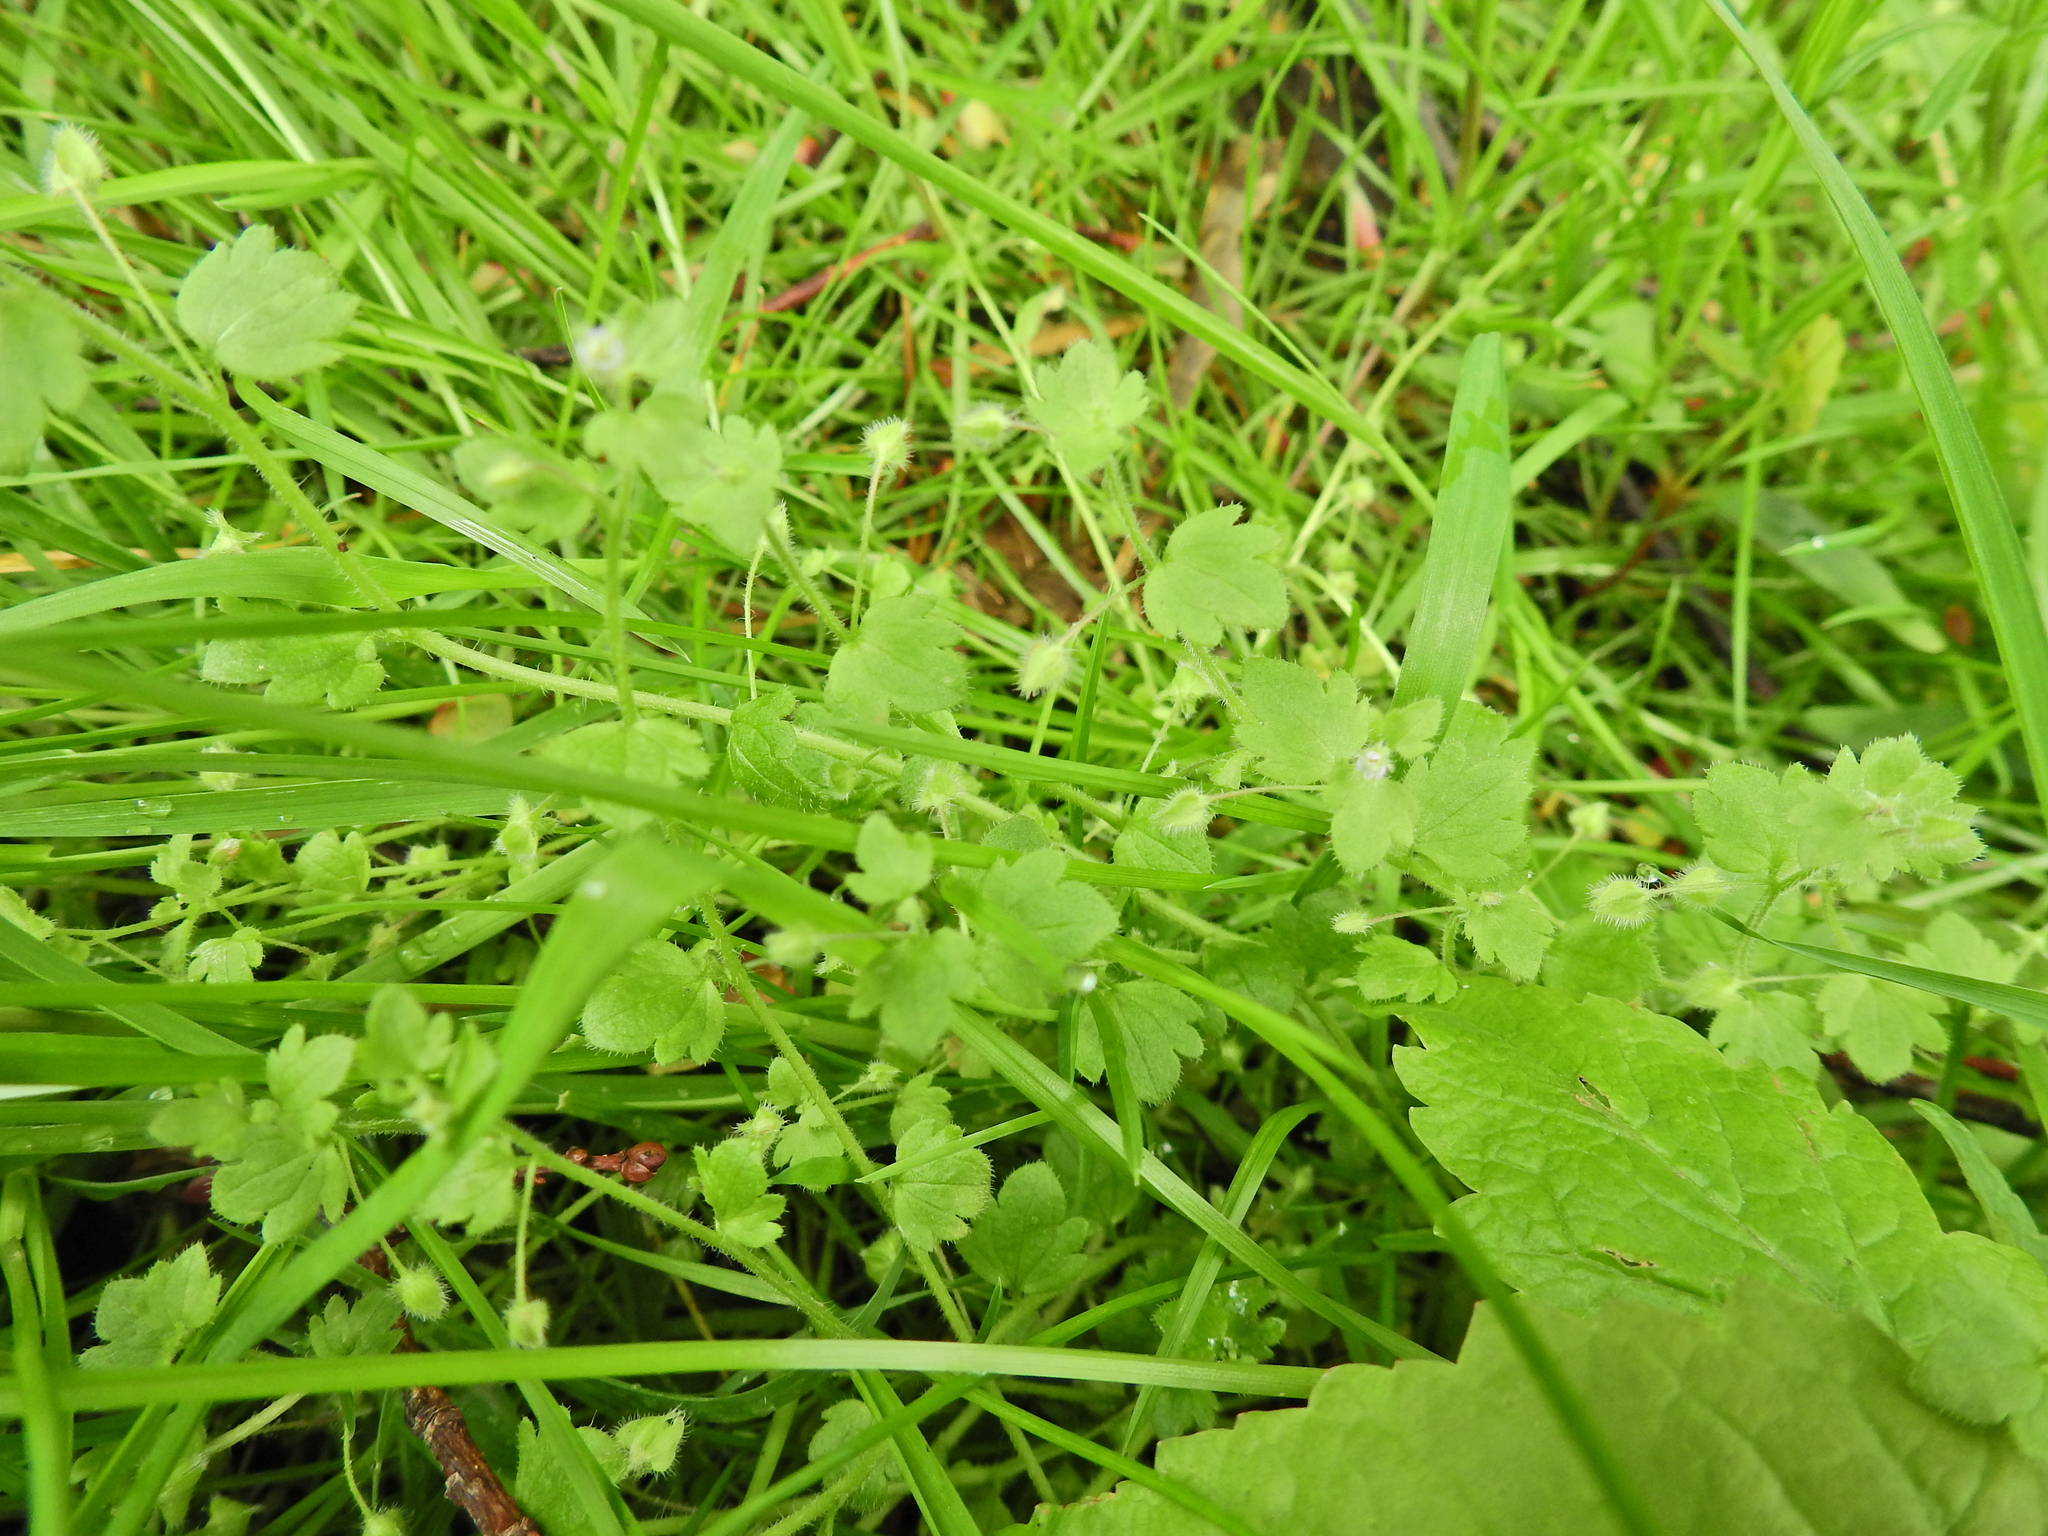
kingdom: Plantae
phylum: Tracheophyta
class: Magnoliopsida
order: Lamiales
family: Plantaginaceae
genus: Veronica
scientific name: Veronica sublobata
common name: False ivy-leaved speedwell
